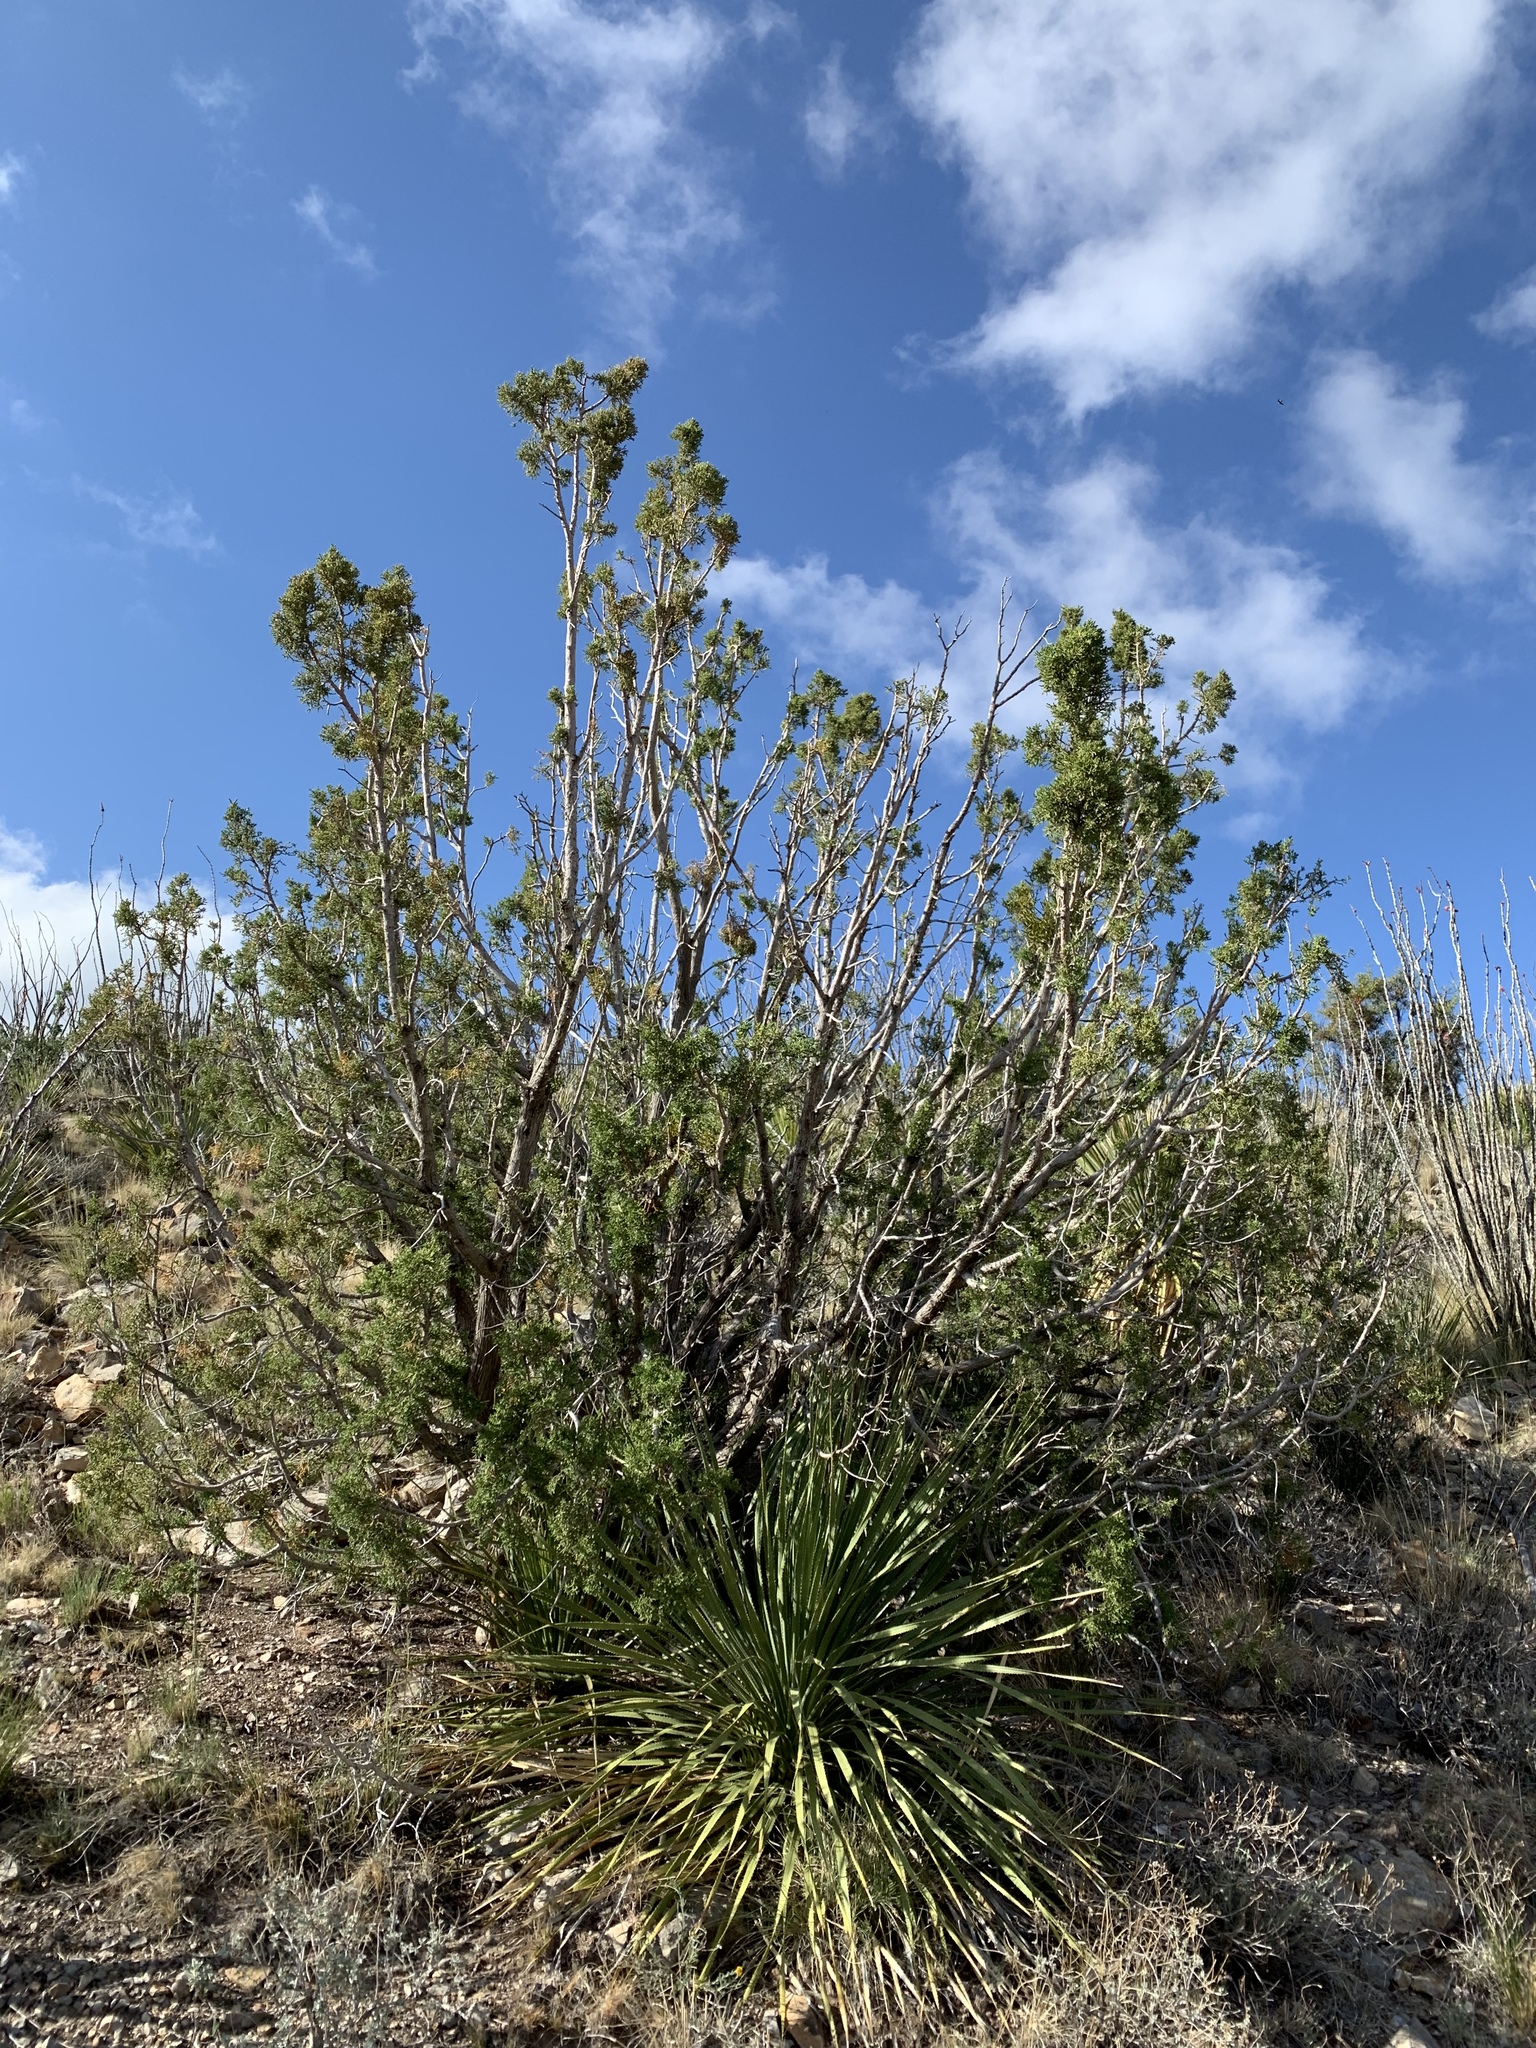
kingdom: Plantae
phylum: Tracheophyta
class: Pinopsida
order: Pinales
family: Cupressaceae
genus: Juniperus
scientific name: Juniperus monosperma
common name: One-seed juniper
